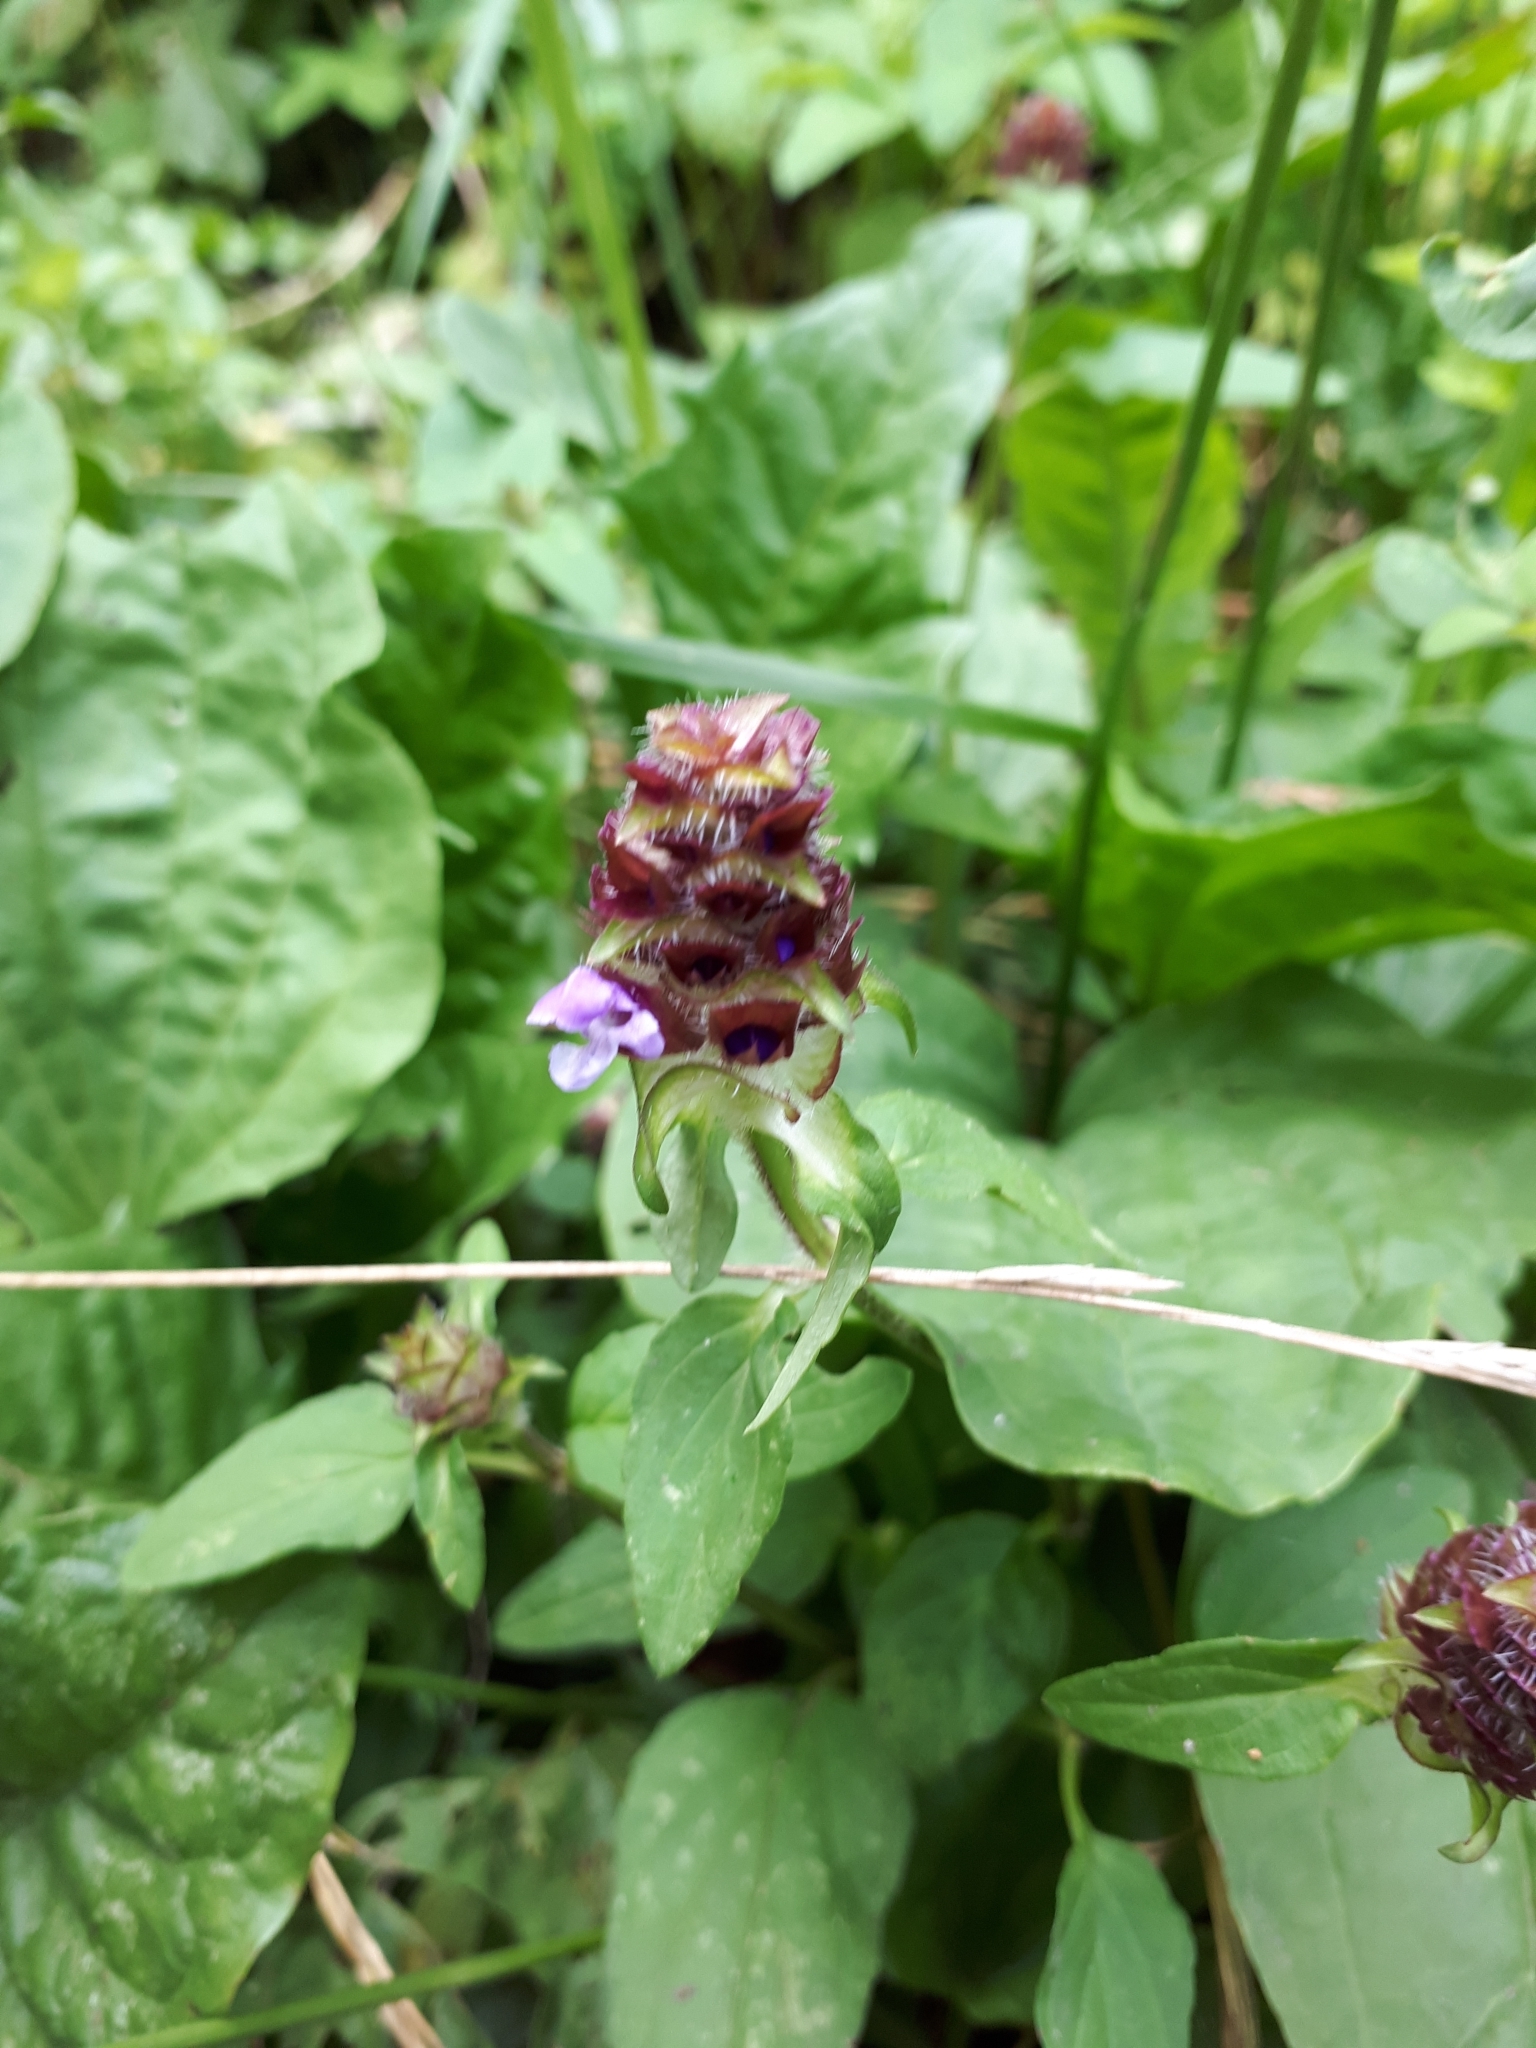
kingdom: Plantae
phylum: Tracheophyta
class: Magnoliopsida
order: Lamiales
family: Lamiaceae
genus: Prunella
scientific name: Prunella vulgaris
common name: Heal-all
